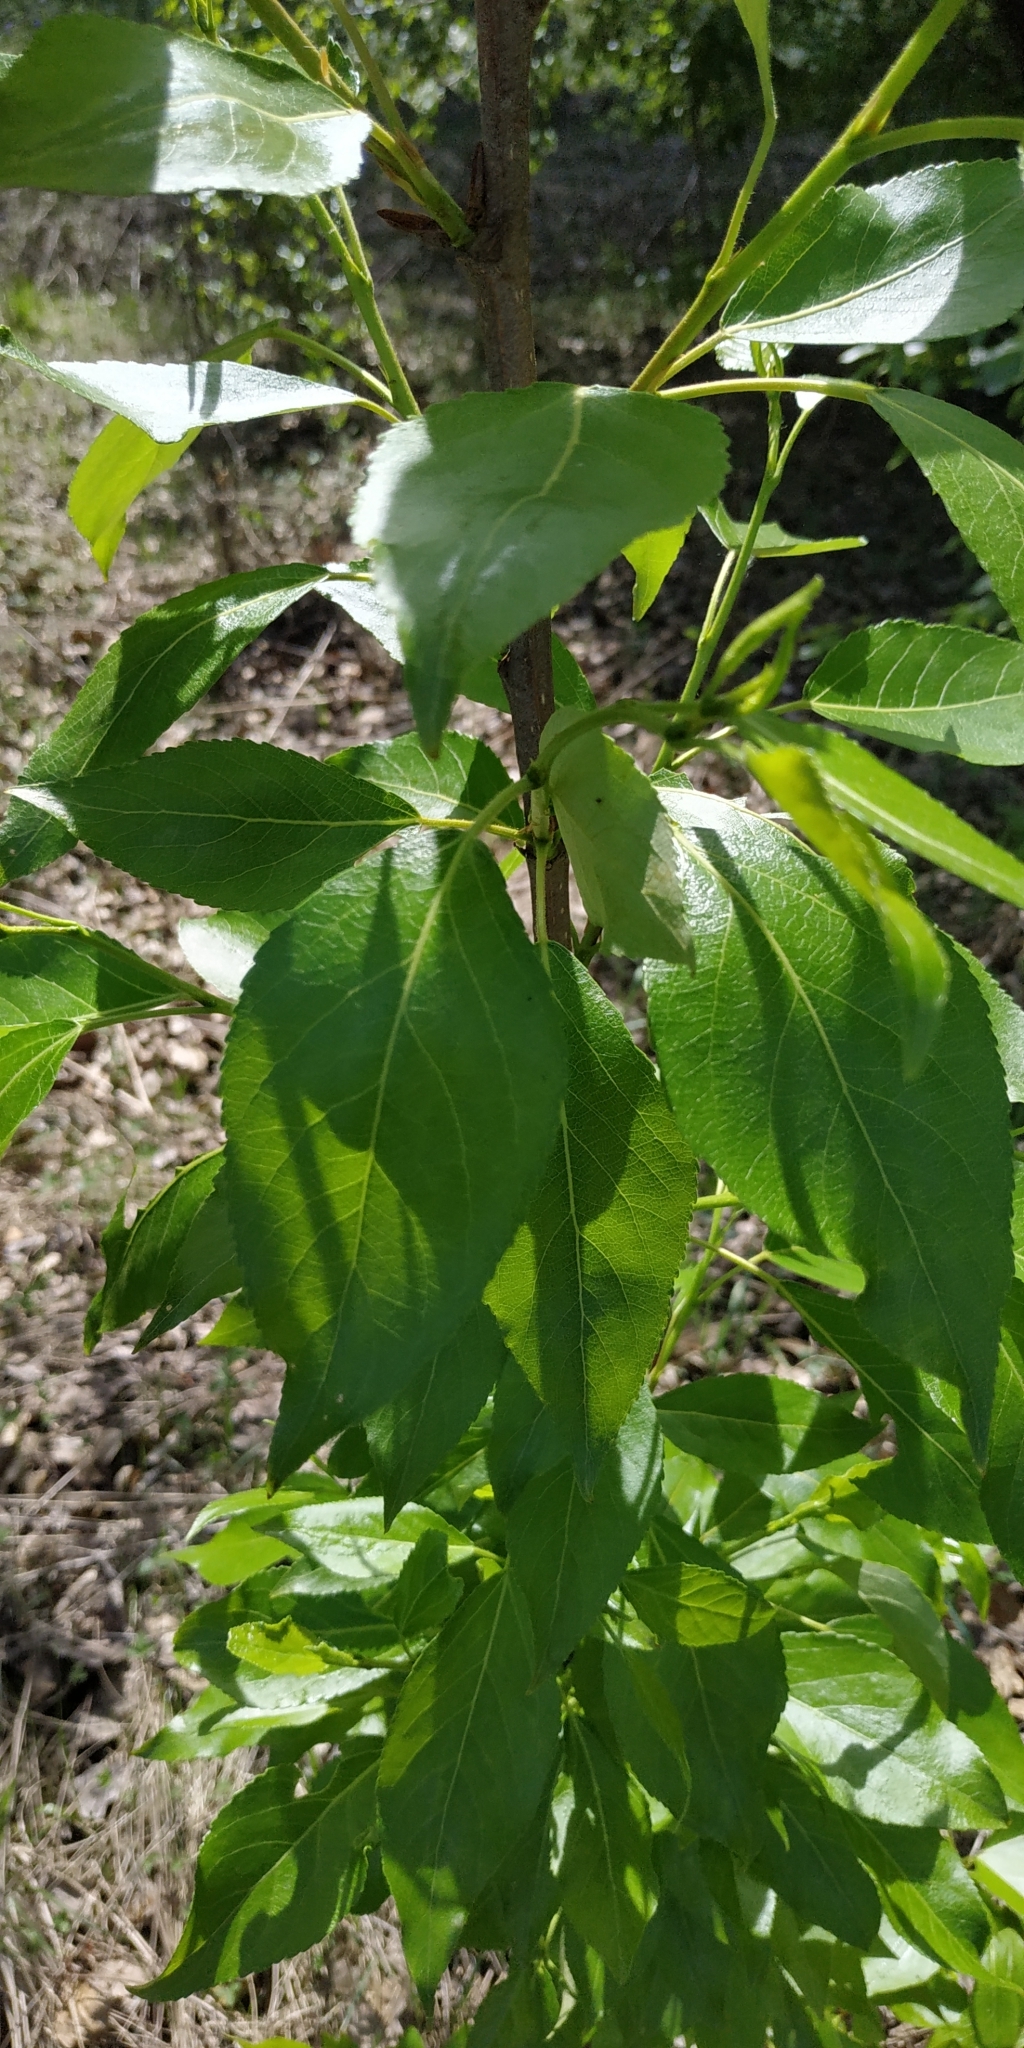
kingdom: Plantae
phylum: Tracheophyta
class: Magnoliopsida
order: Malpighiales
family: Salicaceae
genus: Populus
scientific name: Populus sibirica
